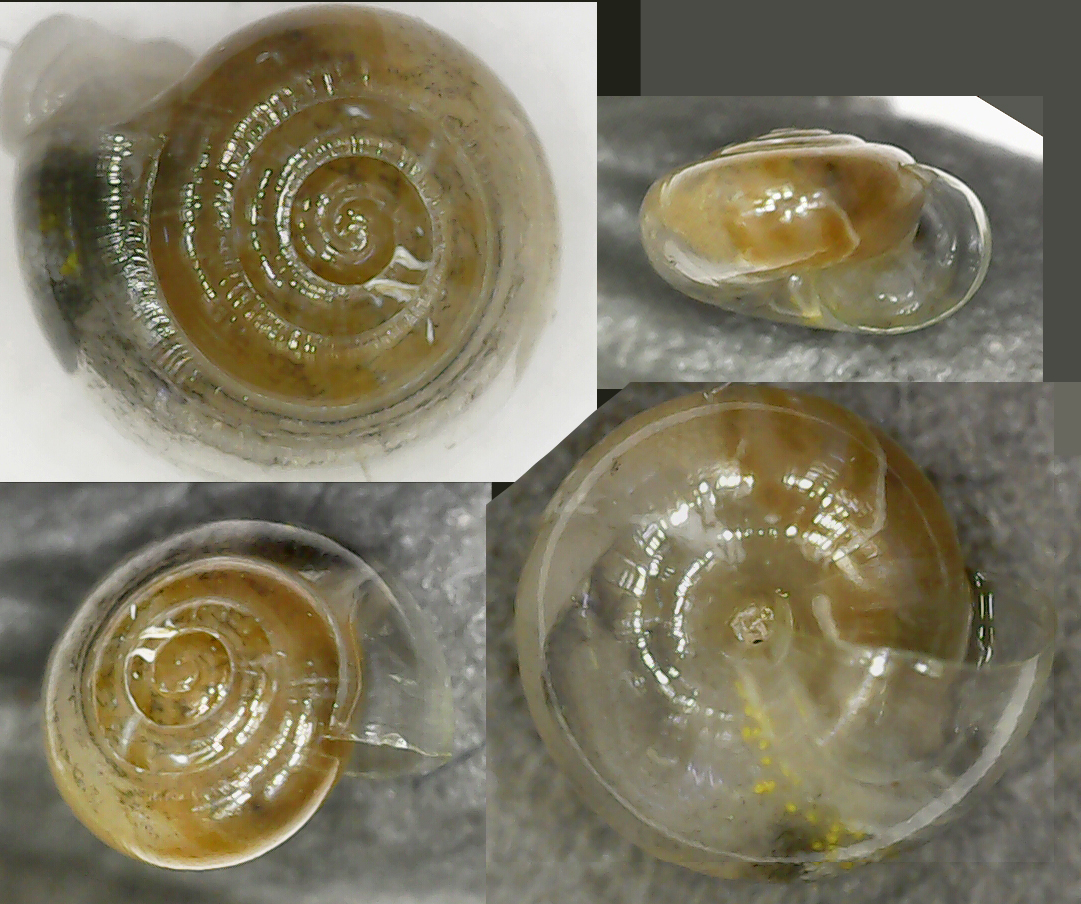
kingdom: Animalia
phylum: Mollusca
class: Gastropoda
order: Stylommatophora
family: Pristilomatidae
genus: Vitrea
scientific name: Vitrea crystallina
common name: Crystal snail
